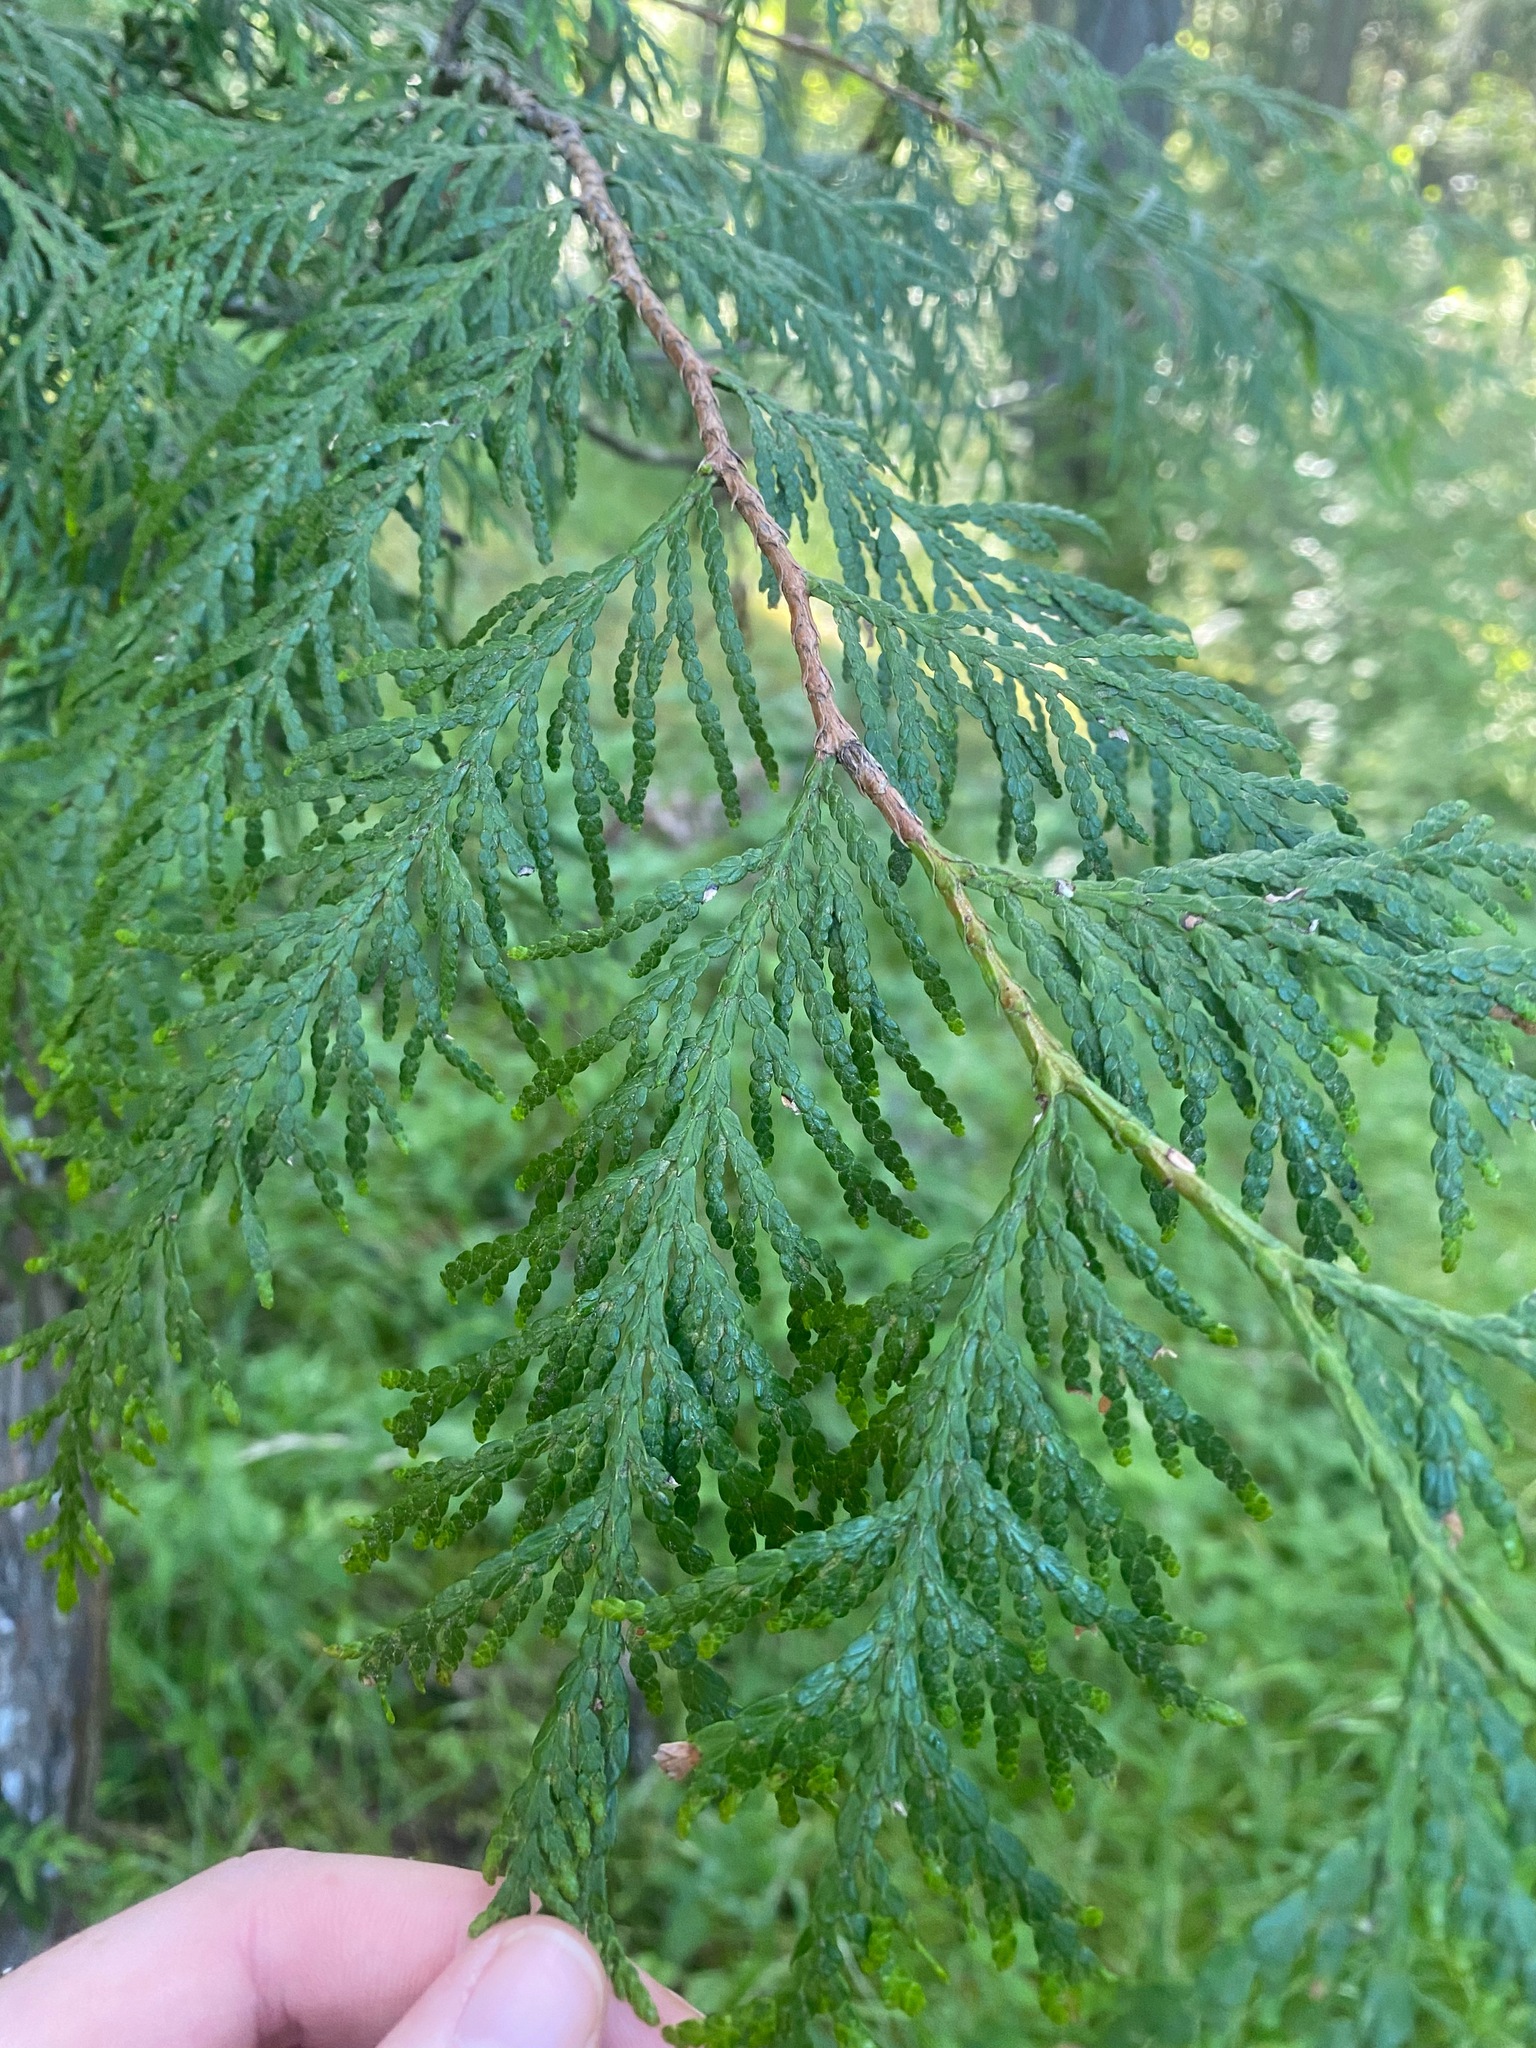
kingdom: Plantae
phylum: Tracheophyta
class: Pinopsida
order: Pinales
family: Cupressaceae
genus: Thuja
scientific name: Thuja plicata
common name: Western red-cedar
